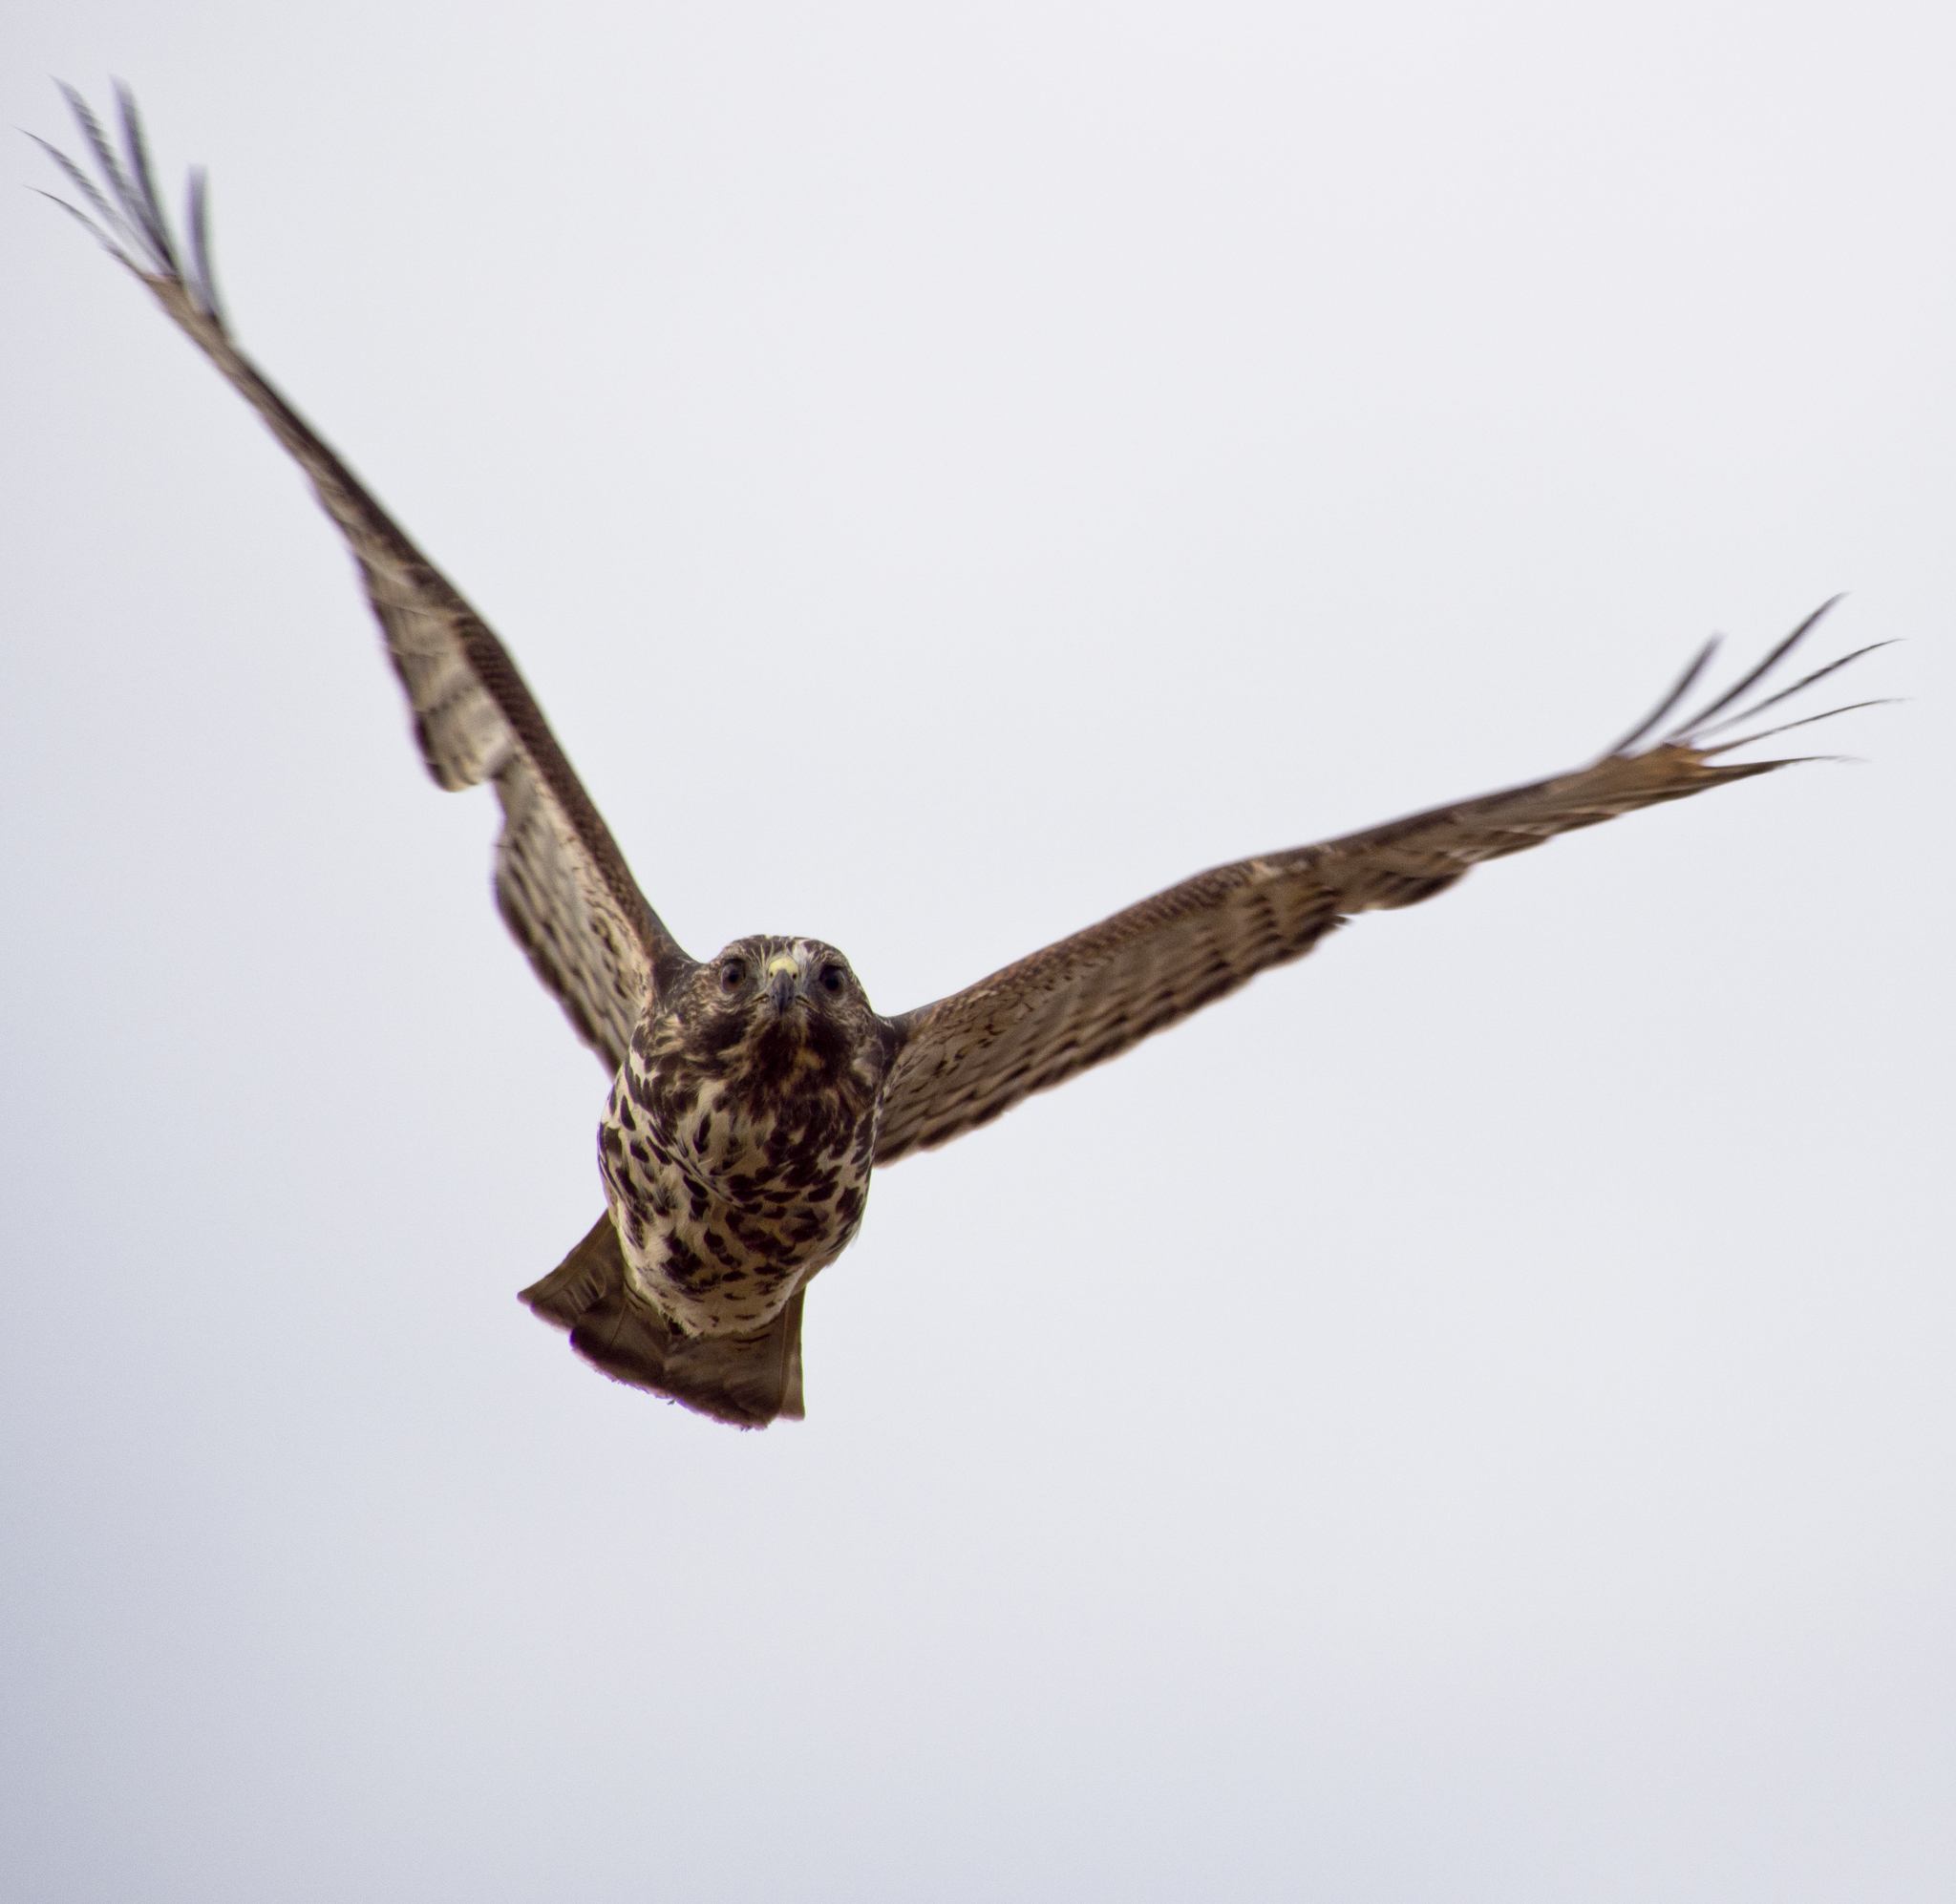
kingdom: Animalia
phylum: Chordata
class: Aves
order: Accipitriformes
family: Accipitridae
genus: Buteo
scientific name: Buteo lineatus
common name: Red-shouldered hawk
